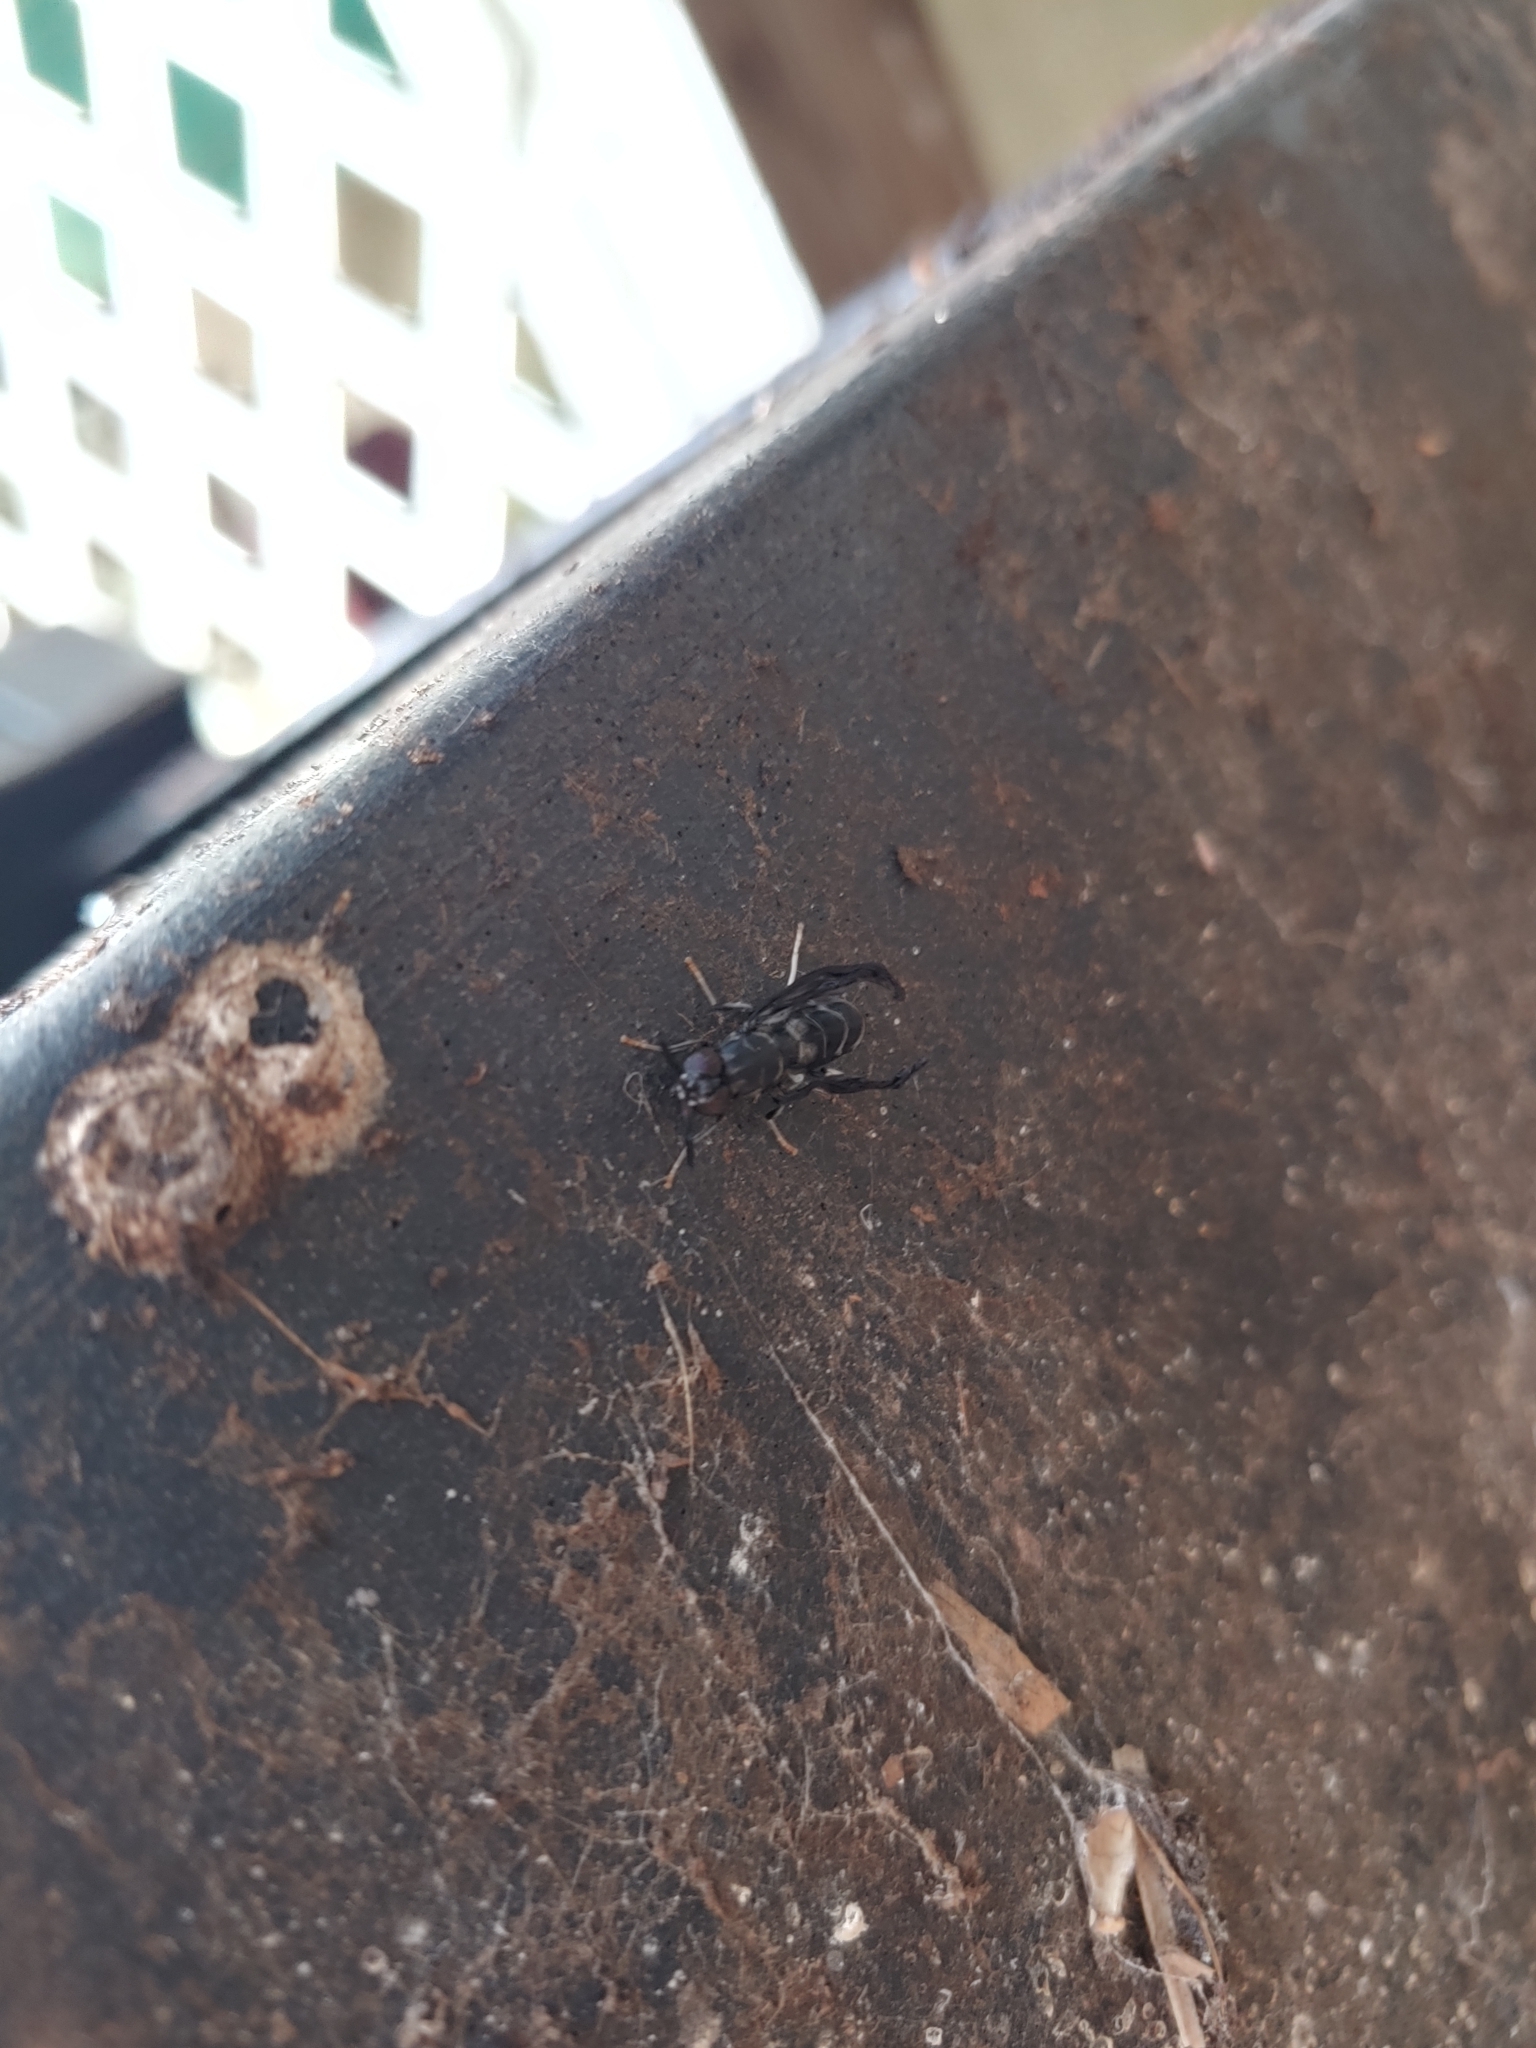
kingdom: Animalia
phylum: Arthropoda
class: Insecta
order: Diptera
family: Stratiomyidae
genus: Hermetia
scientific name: Hermetia illucens
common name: Black soldier fly
